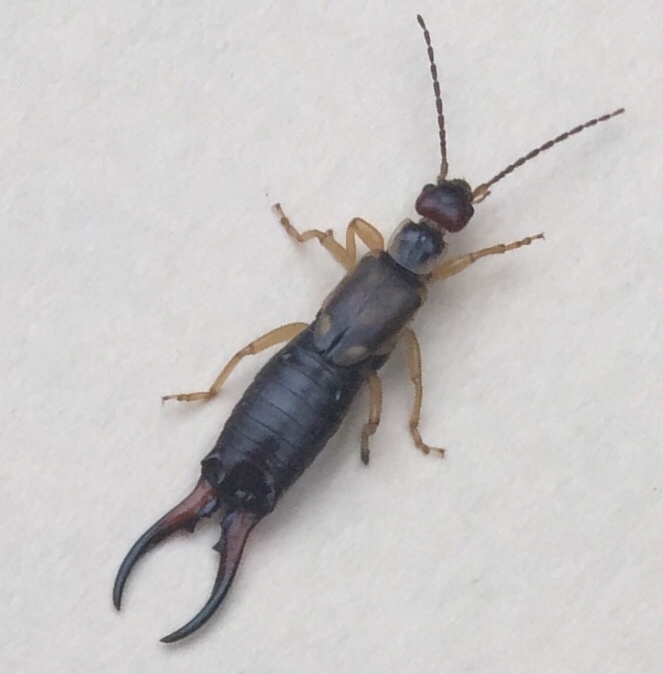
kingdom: Animalia
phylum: Arthropoda
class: Insecta
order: Dermaptera
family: Forficulidae
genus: Forficula
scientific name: Forficula
